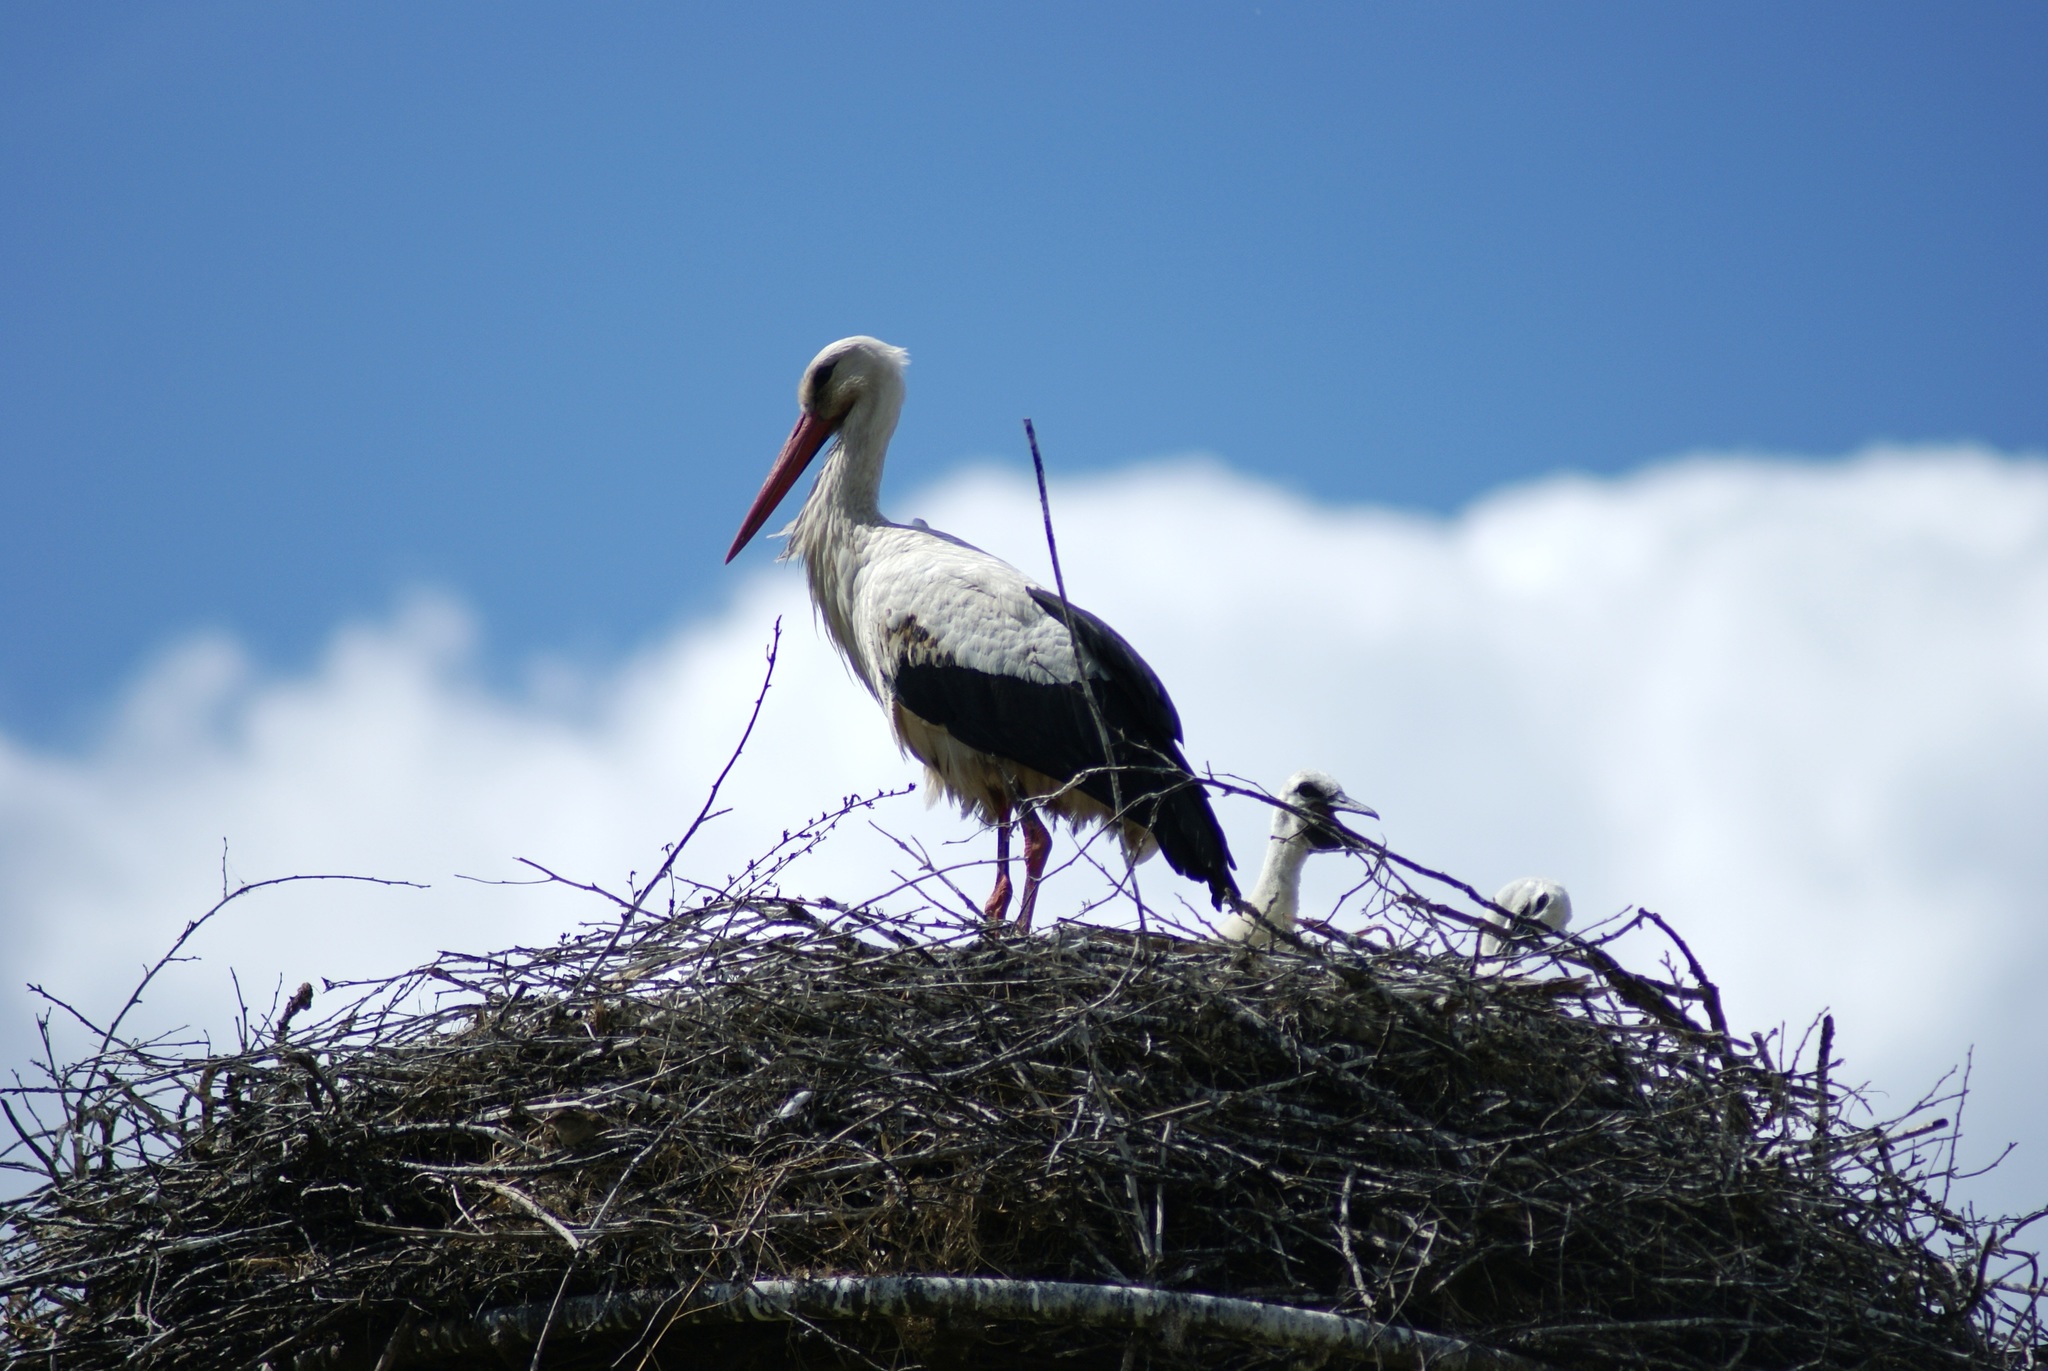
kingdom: Animalia
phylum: Chordata
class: Aves
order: Ciconiiformes
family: Ciconiidae
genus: Ciconia
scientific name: Ciconia ciconia
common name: White stork
